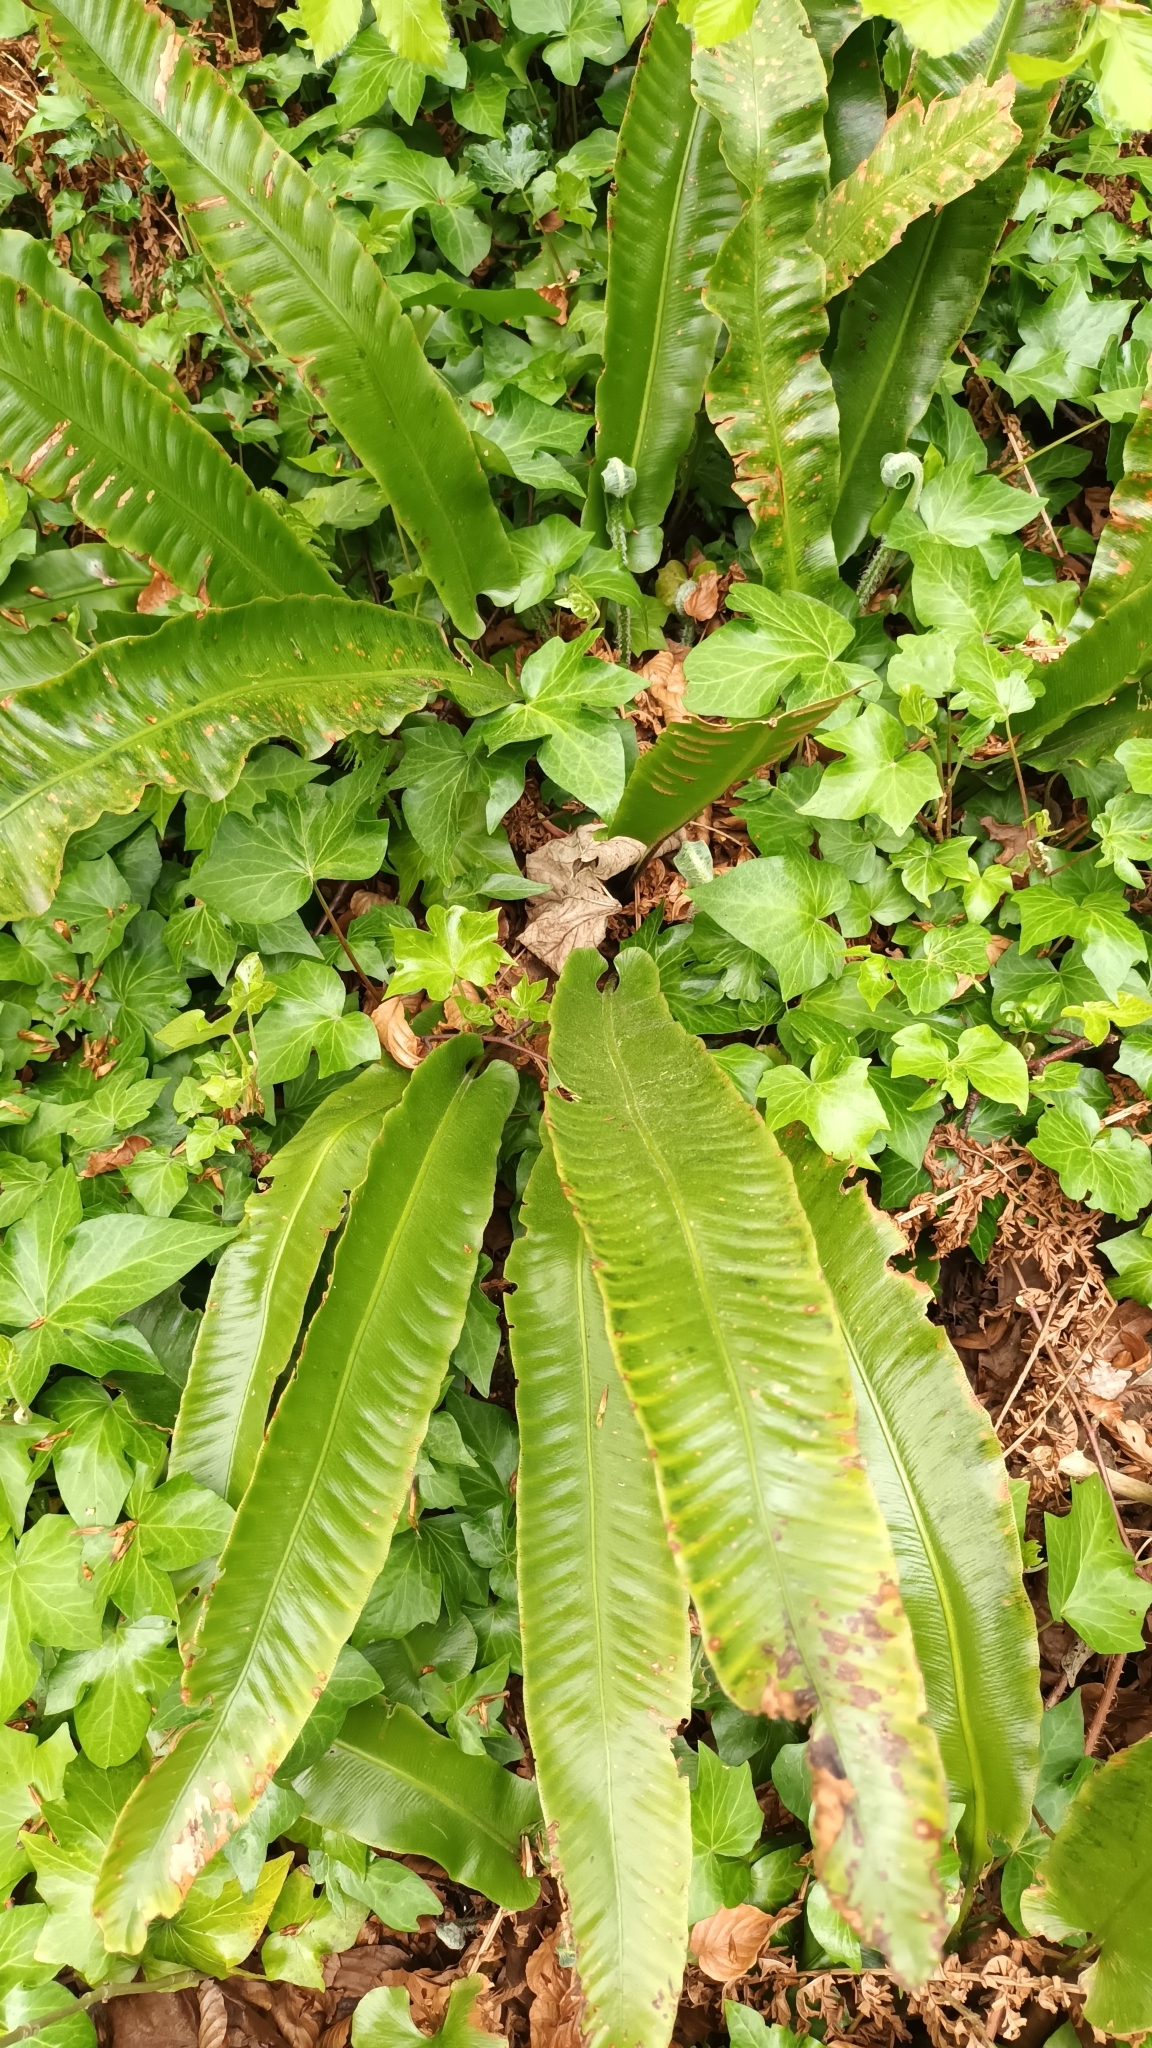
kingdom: Plantae
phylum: Tracheophyta
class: Polypodiopsida
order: Polypodiales
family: Aspleniaceae
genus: Asplenium
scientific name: Asplenium scolopendrium
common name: Hart's-tongue fern
